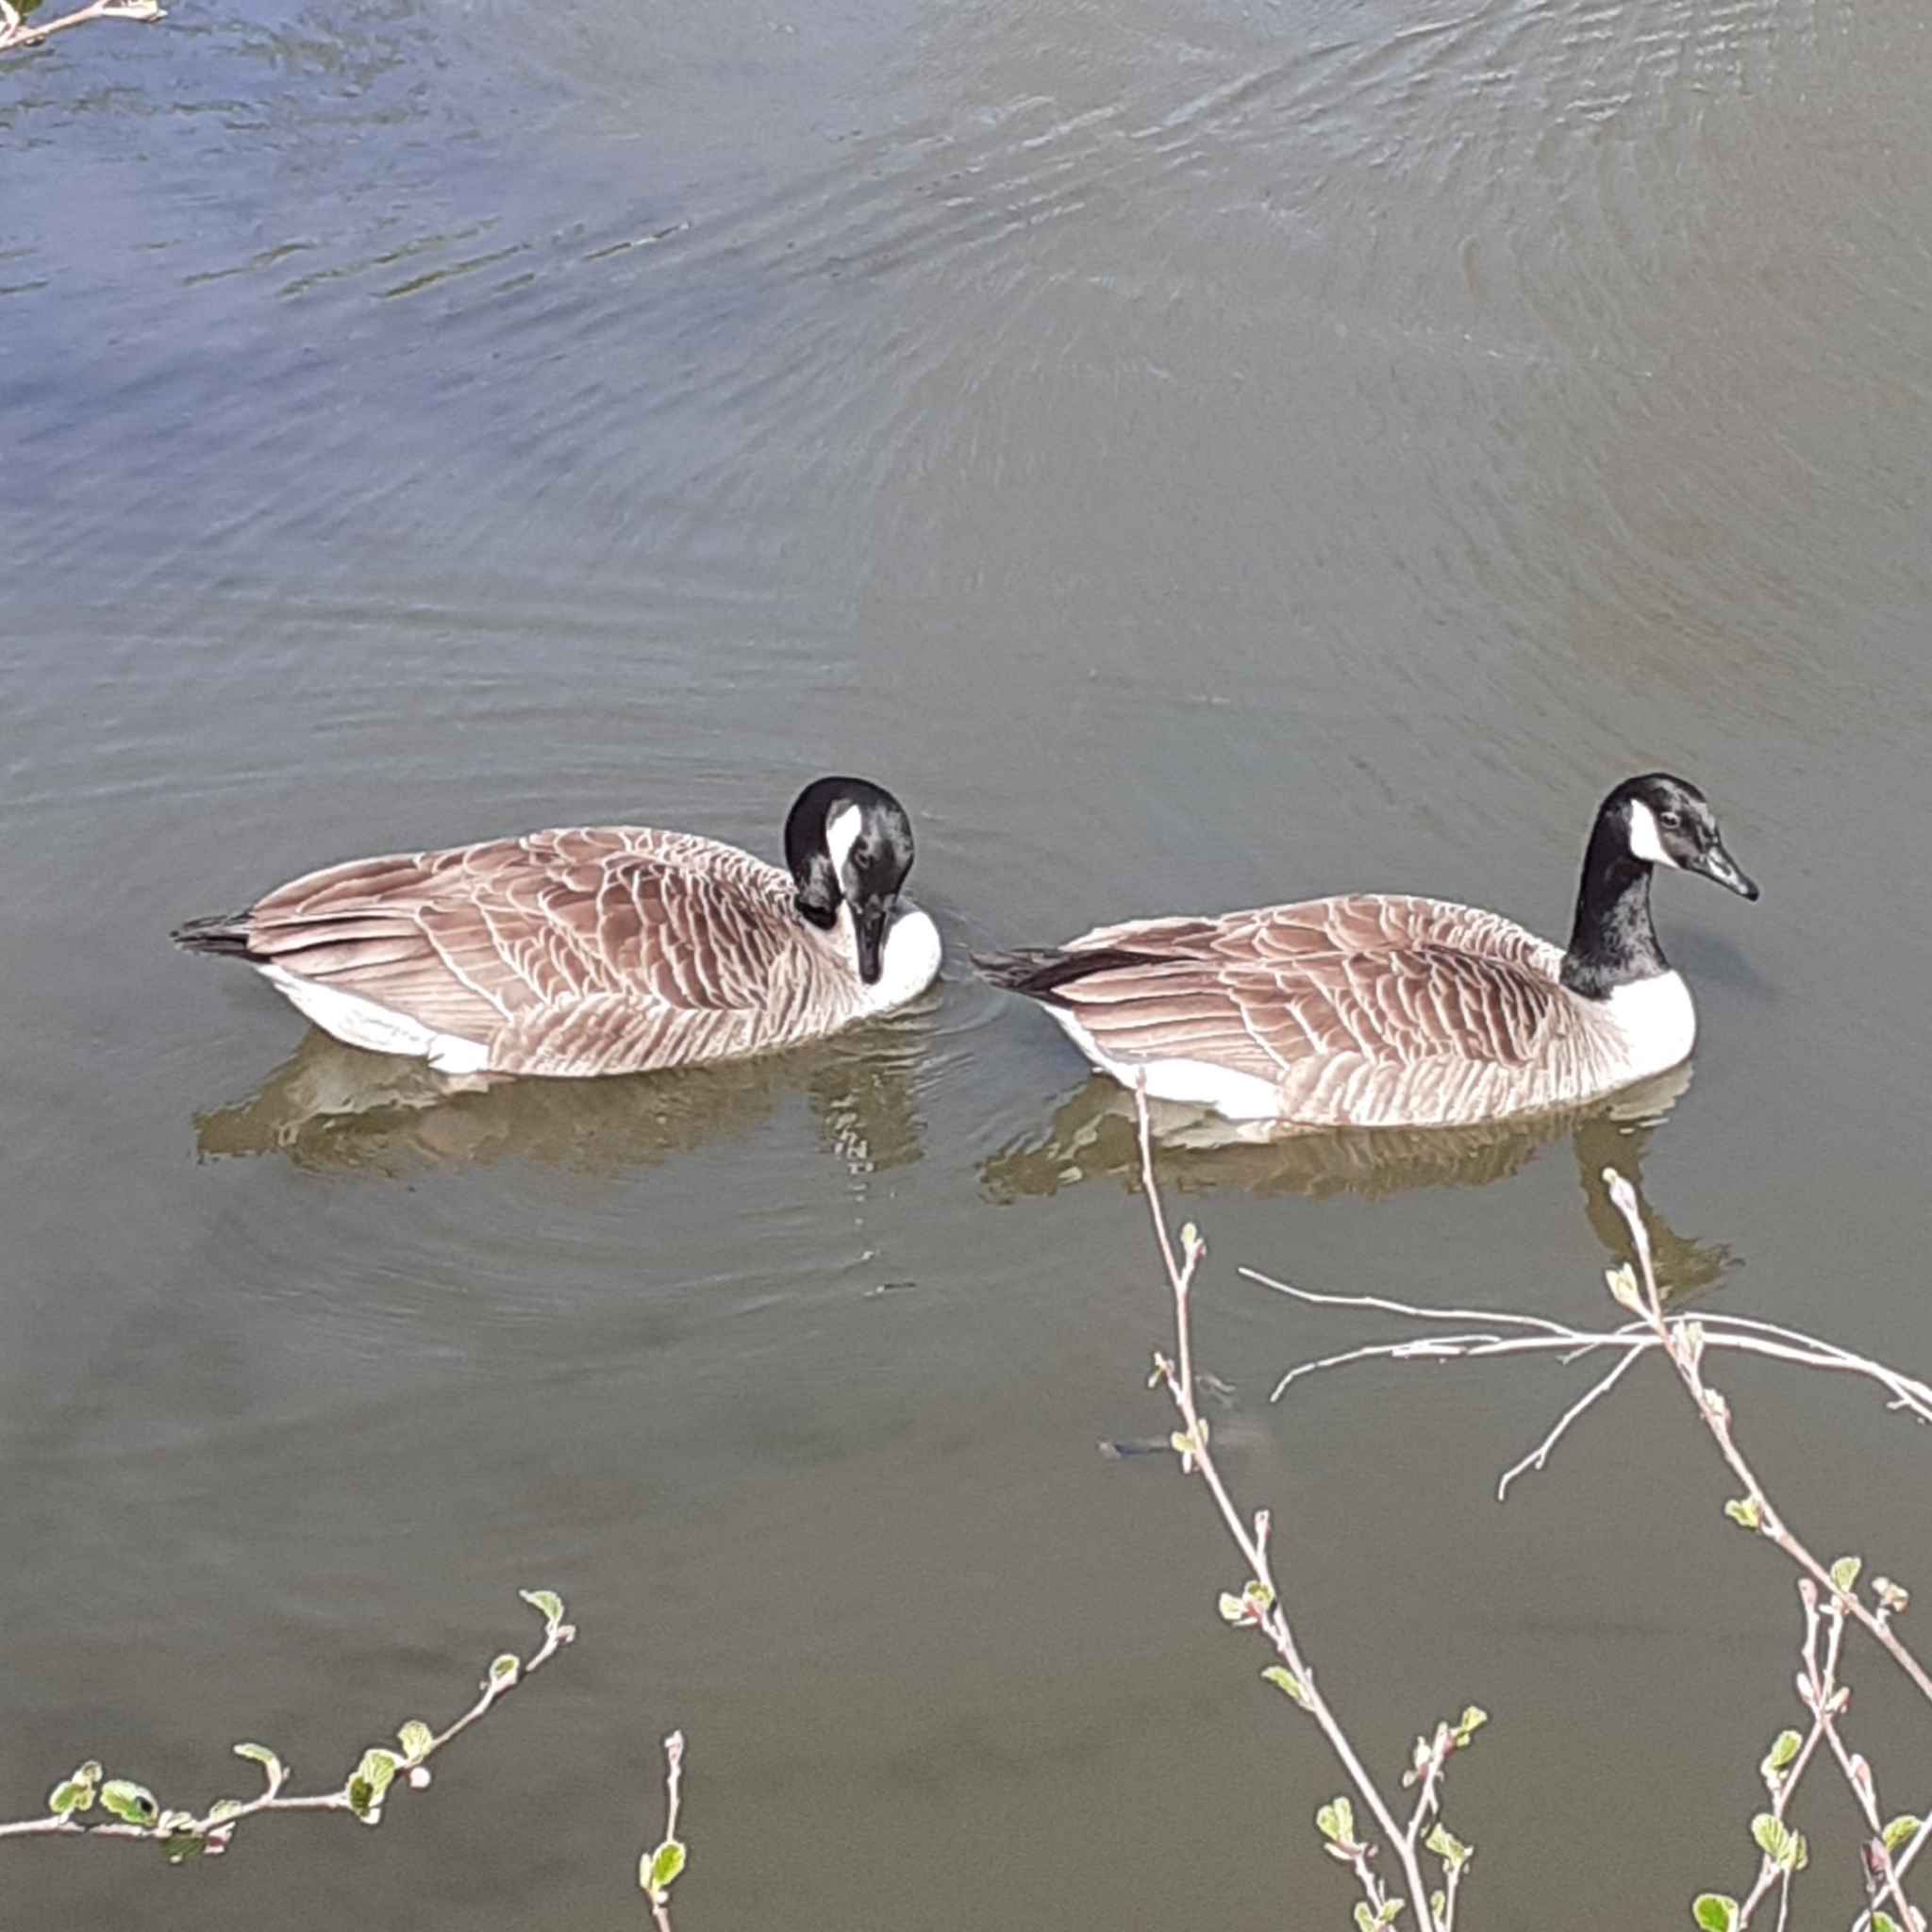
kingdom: Animalia
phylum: Chordata
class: Aves
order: Anseriformes
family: Anatidae
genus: Branta
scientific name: Branta canadensis
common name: Canada goose
